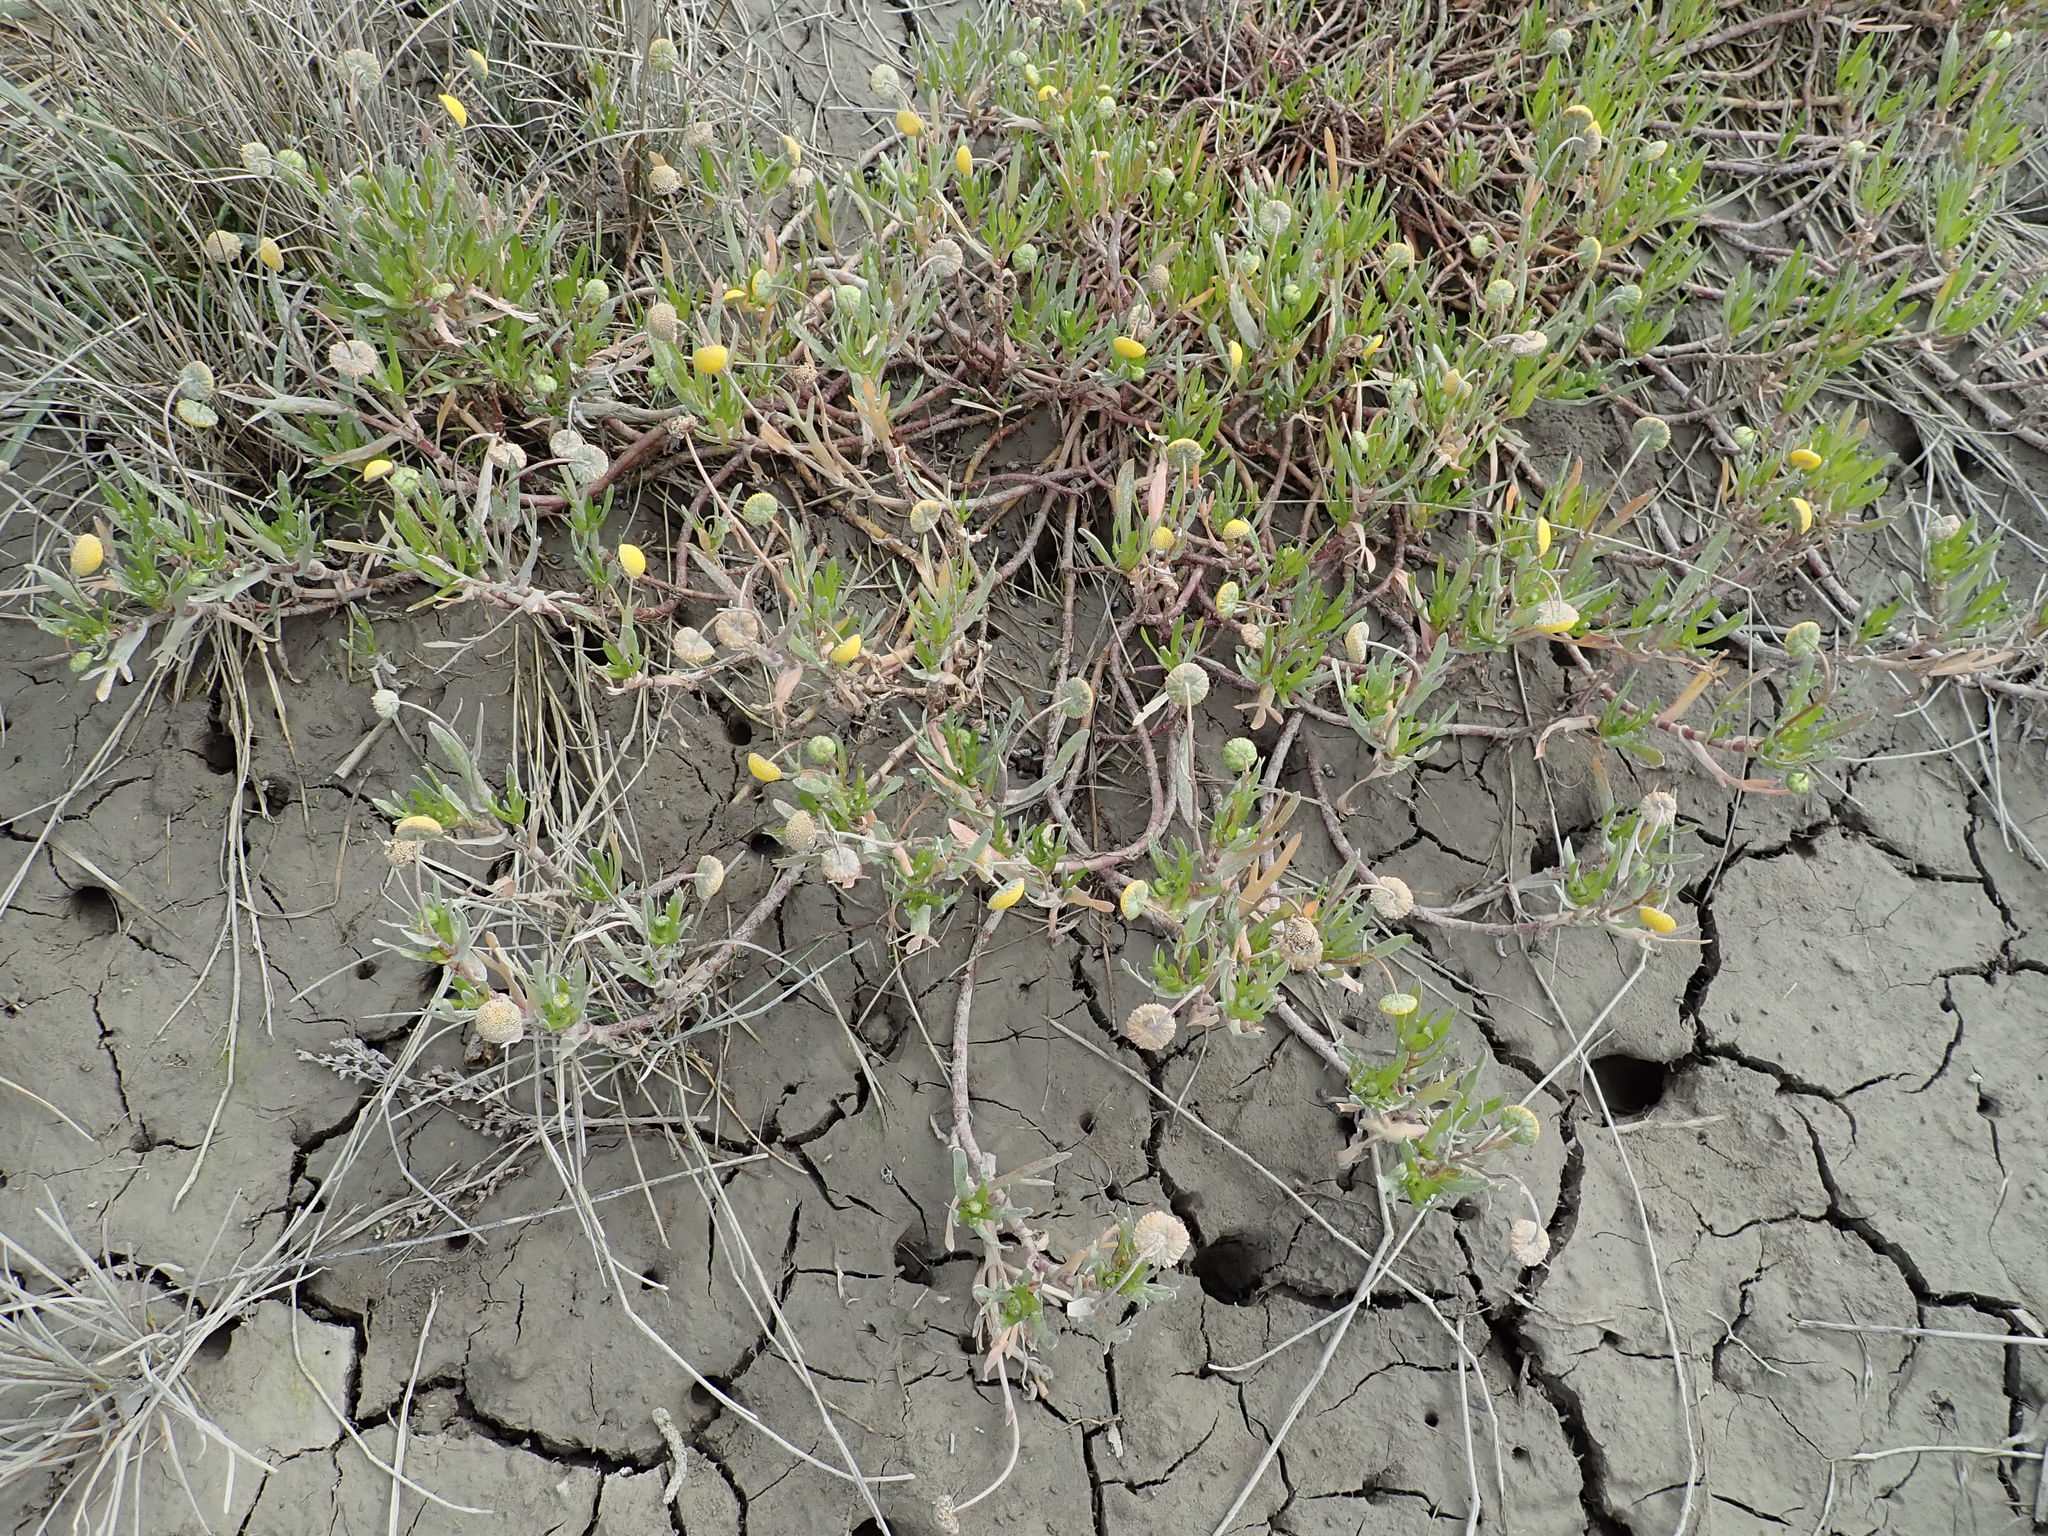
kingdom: Plantae
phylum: Tracheophyta
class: Magnoliopsida
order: Asterales
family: Asteraceae
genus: Cotula
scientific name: Cotula coronopifolia
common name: Buttonweed
